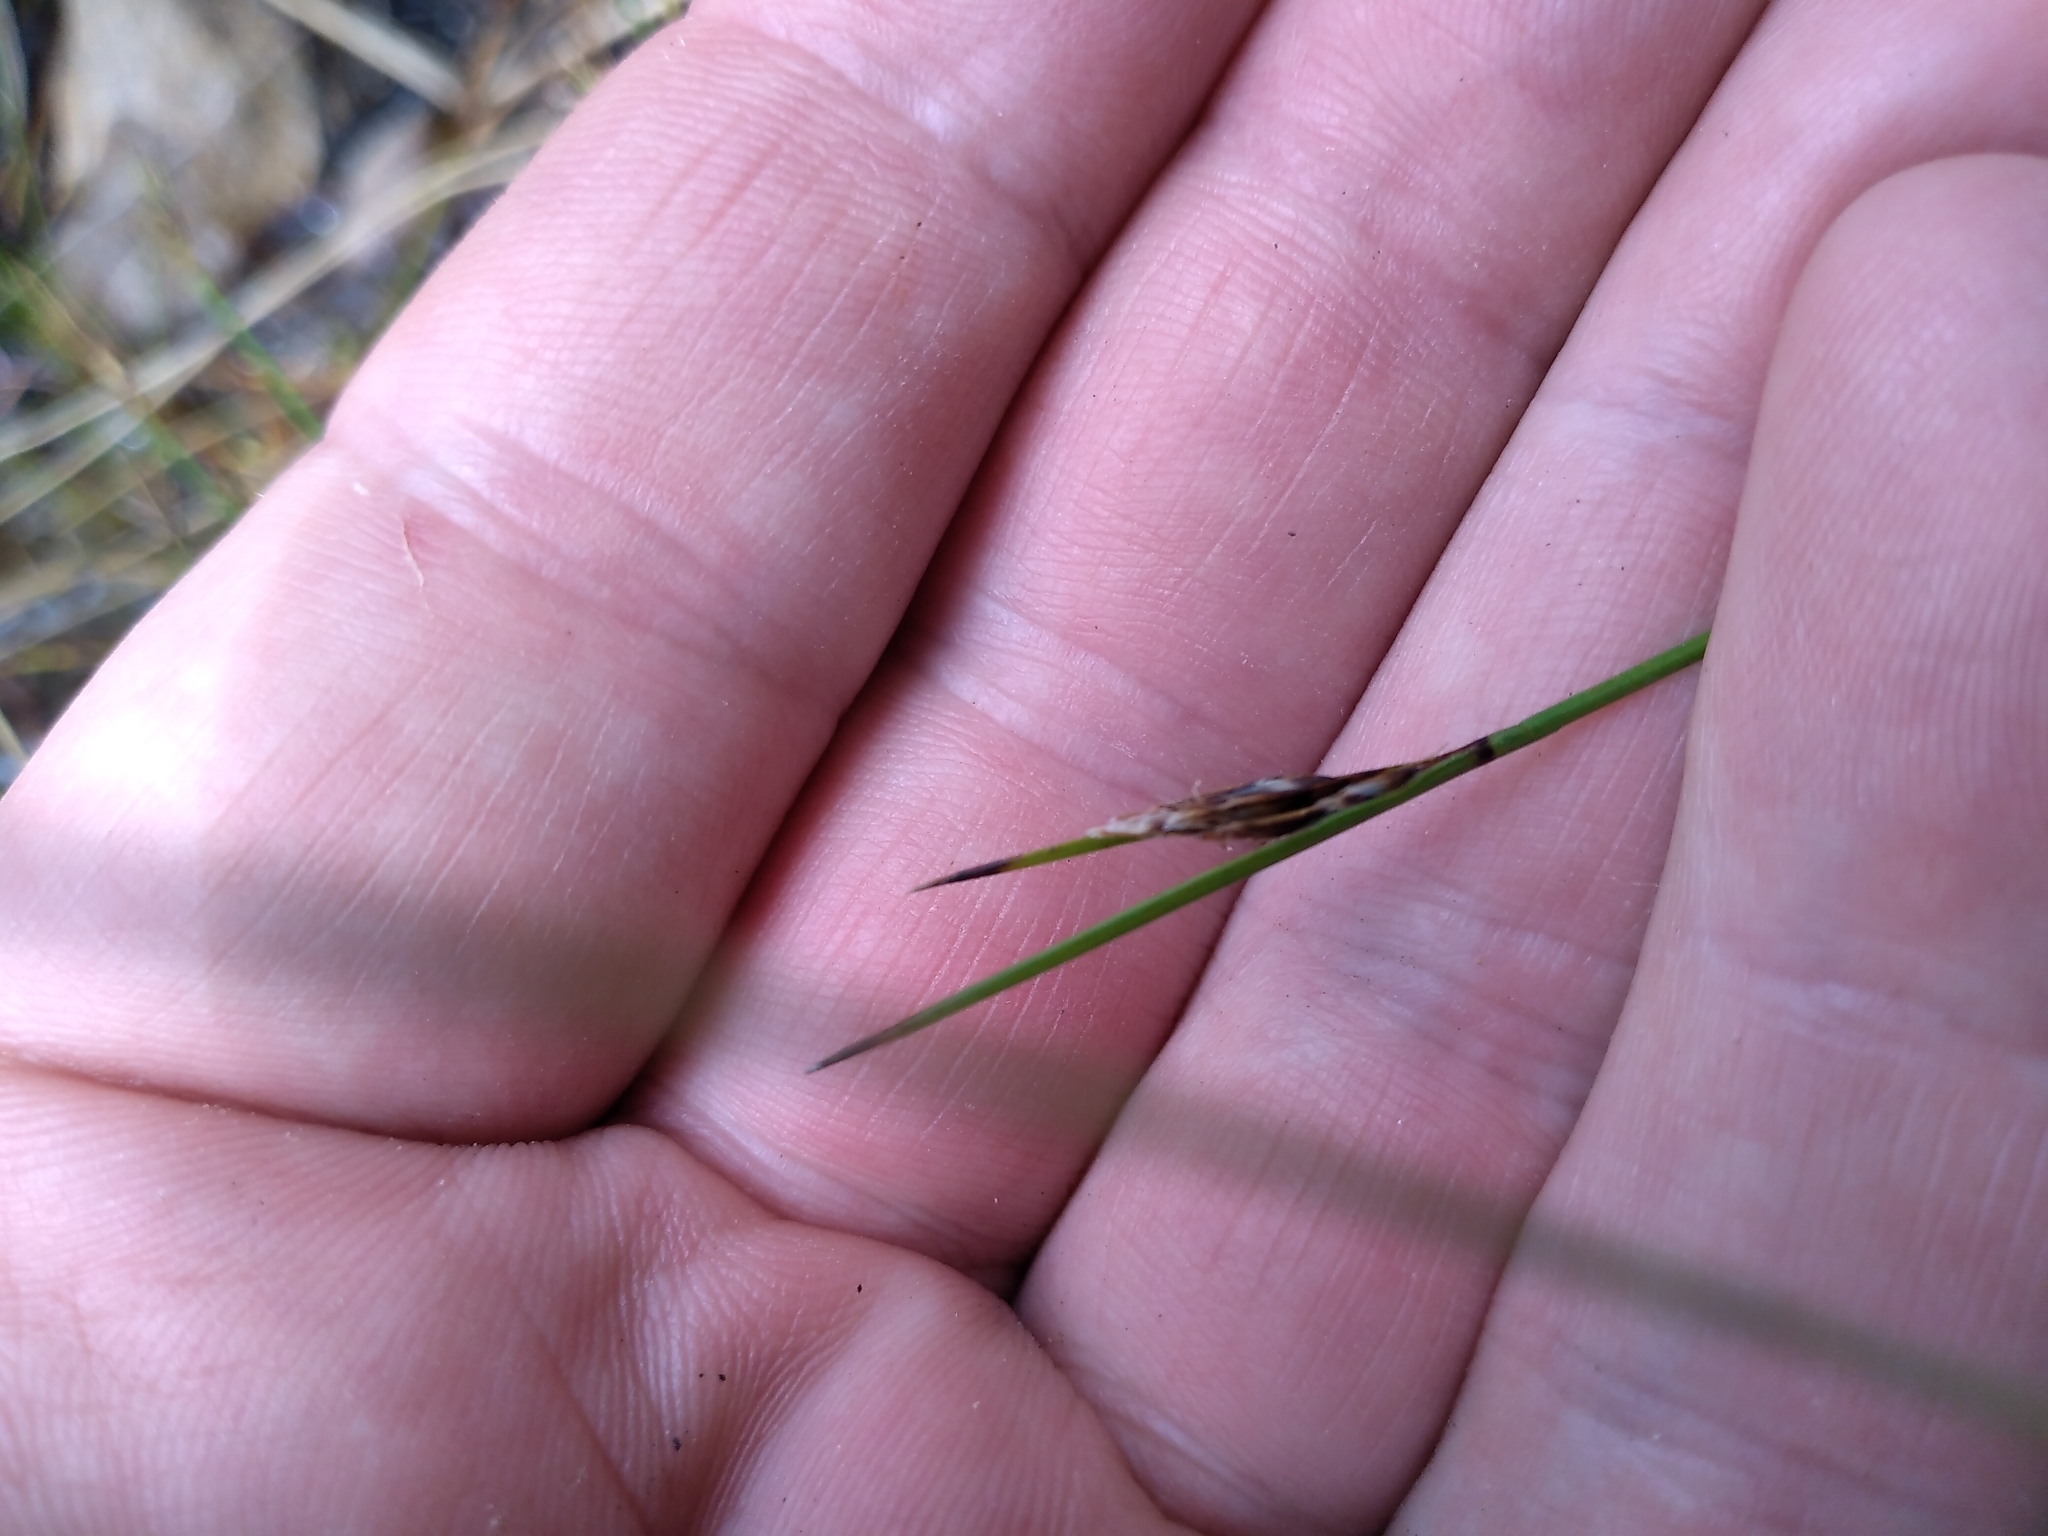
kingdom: Plantae
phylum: Tracheophyta
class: Liliopsida
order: Poales
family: Cyperaceae
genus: Schoenus
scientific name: Schoenus nitens
